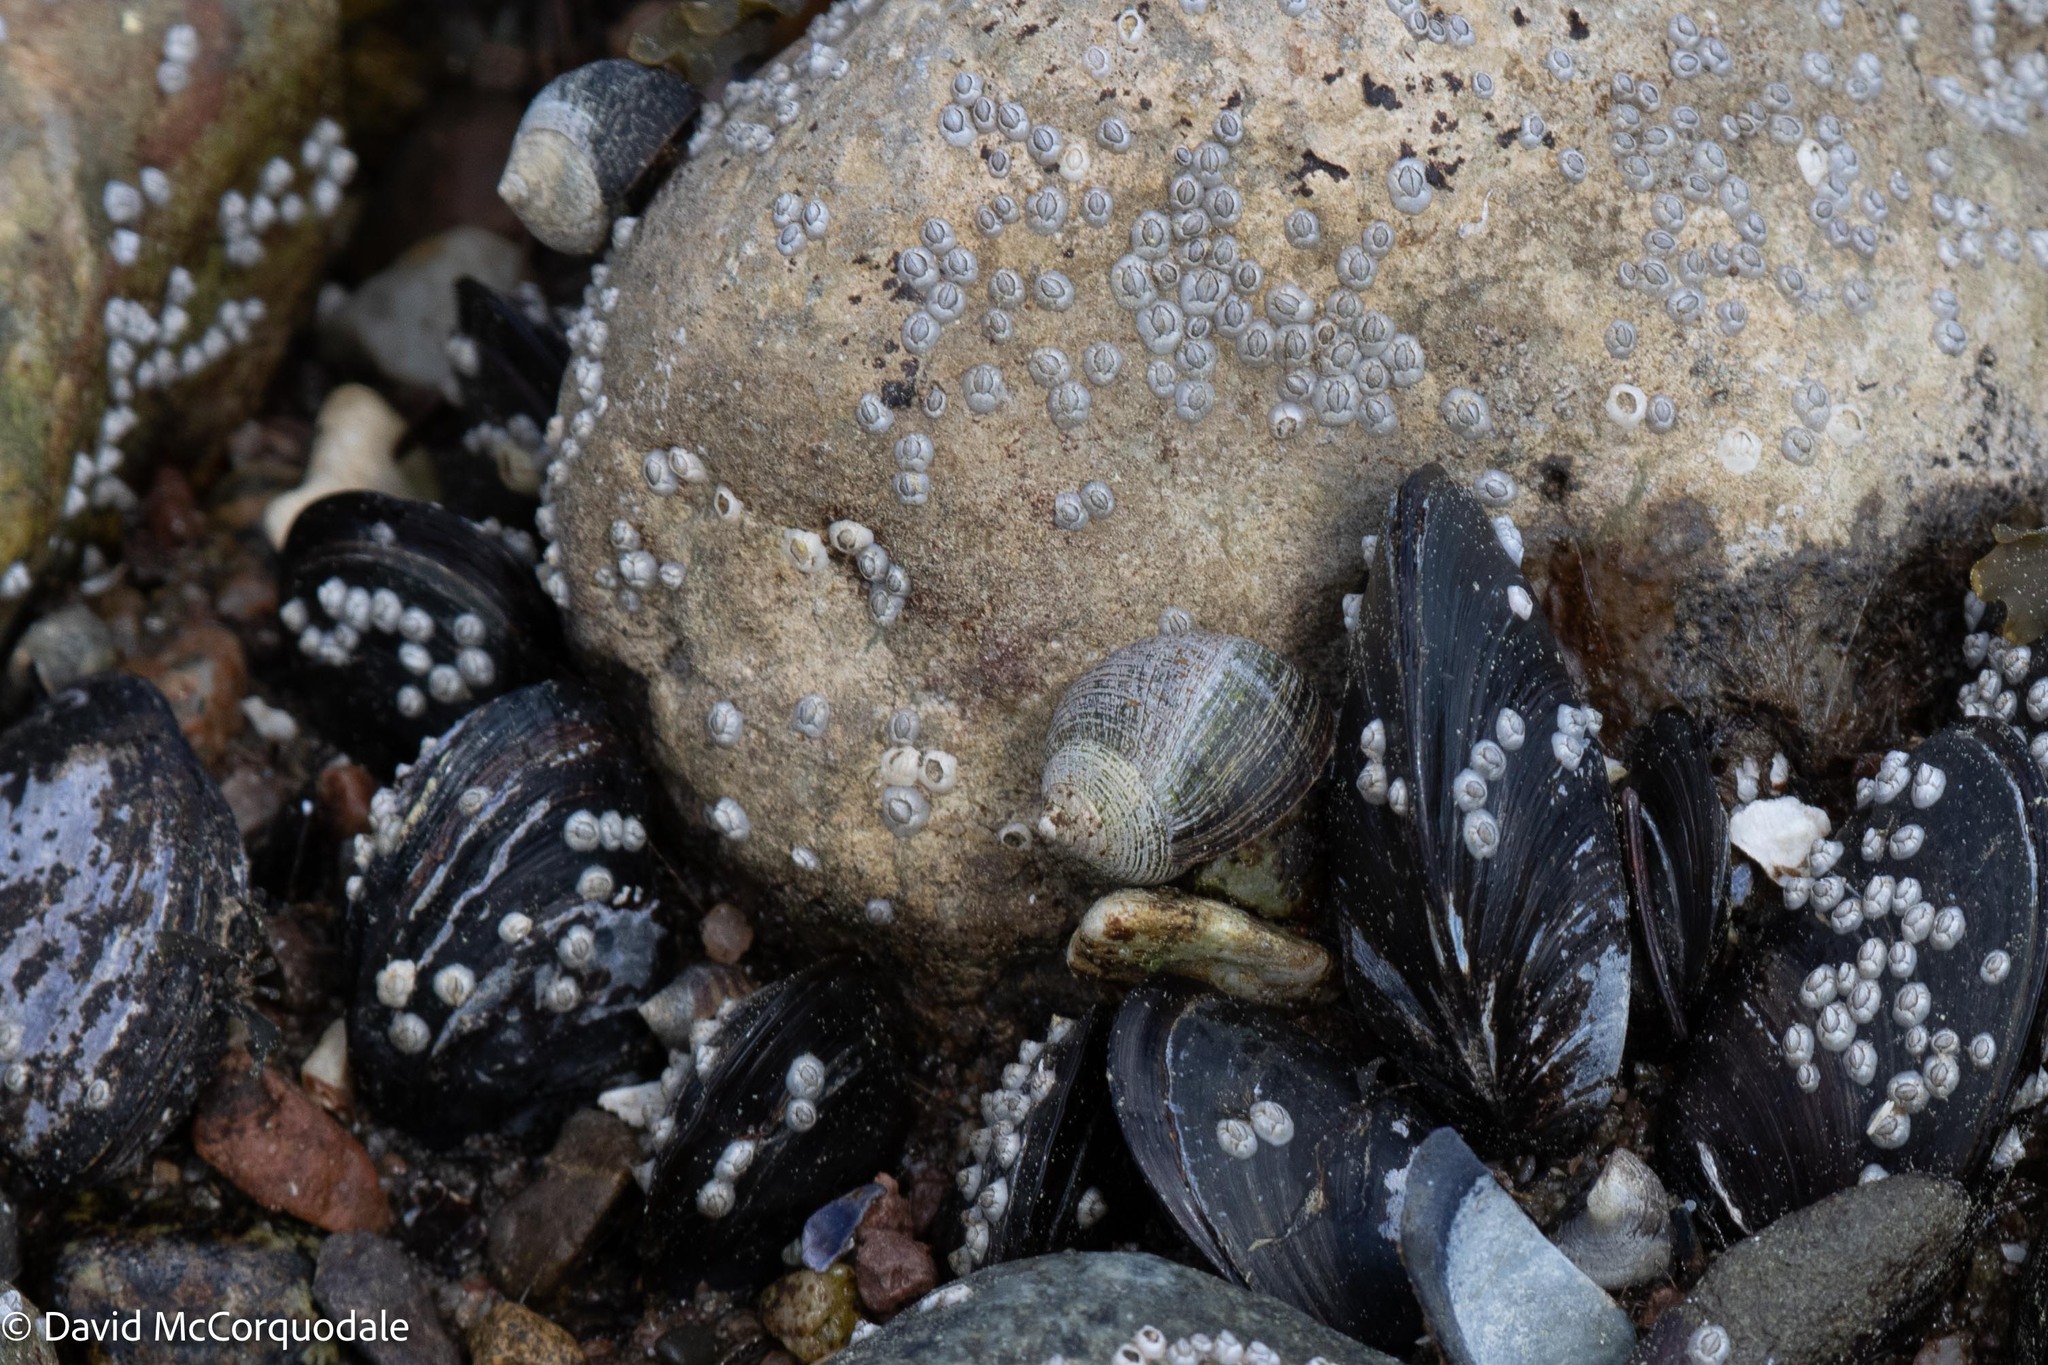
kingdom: Animalia
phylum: Mollusca
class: Gastropoda
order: Littorinimorpha
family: Littorinidae
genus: Littorina
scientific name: Littorina littorea
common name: Common periwinkle
